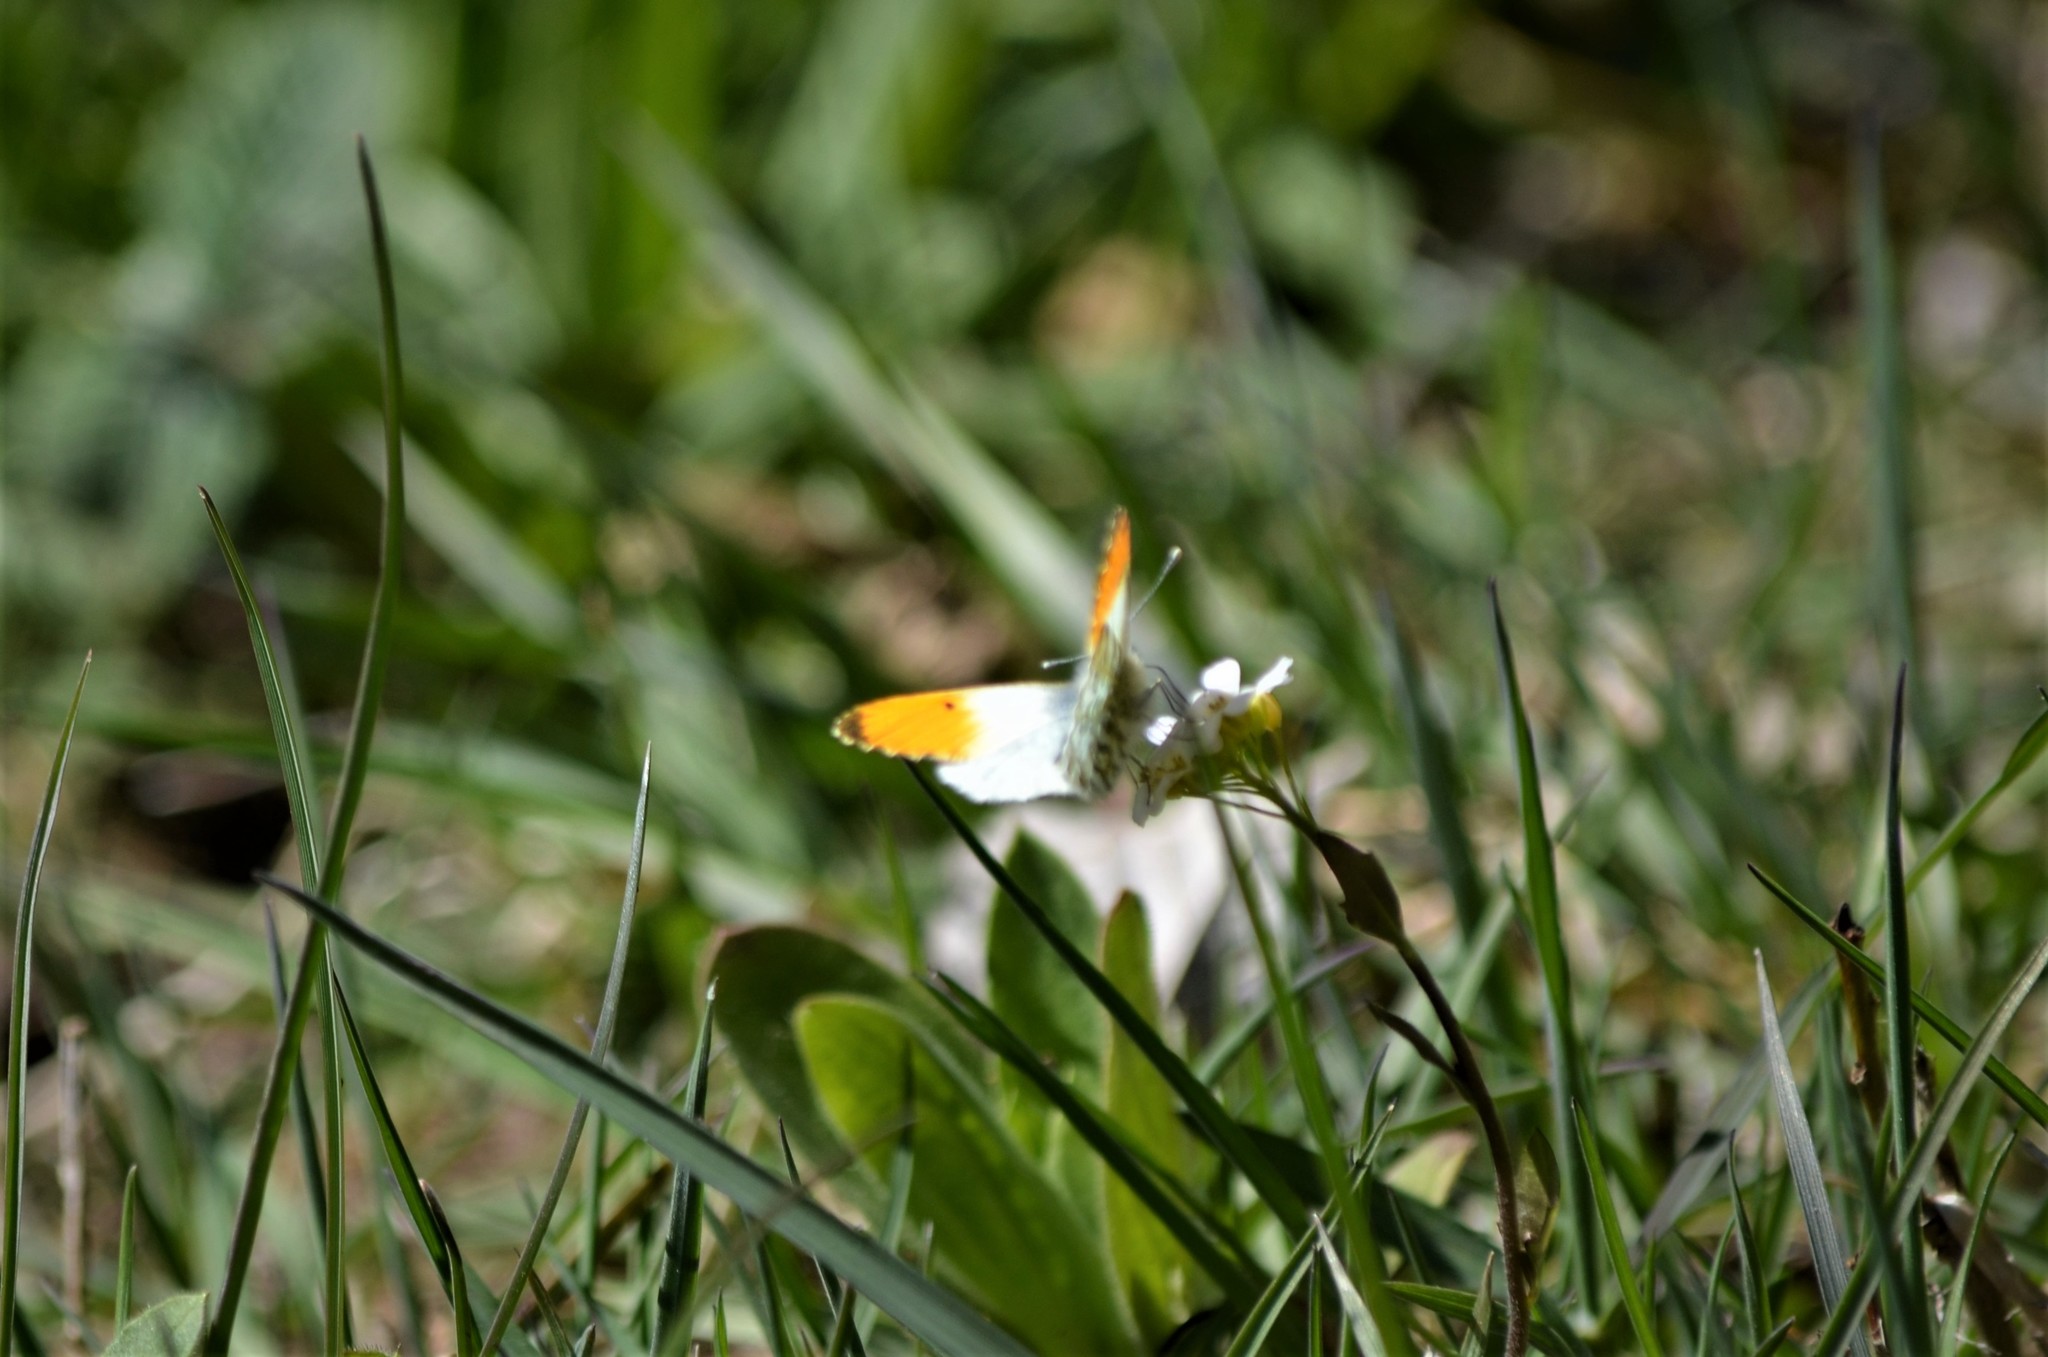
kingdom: Animalia
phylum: Arthropoda
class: Insecta
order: Lepidoptera
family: Pieridae
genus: Anthocharis
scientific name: Anthocharis cardamines
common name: Orange-tip
